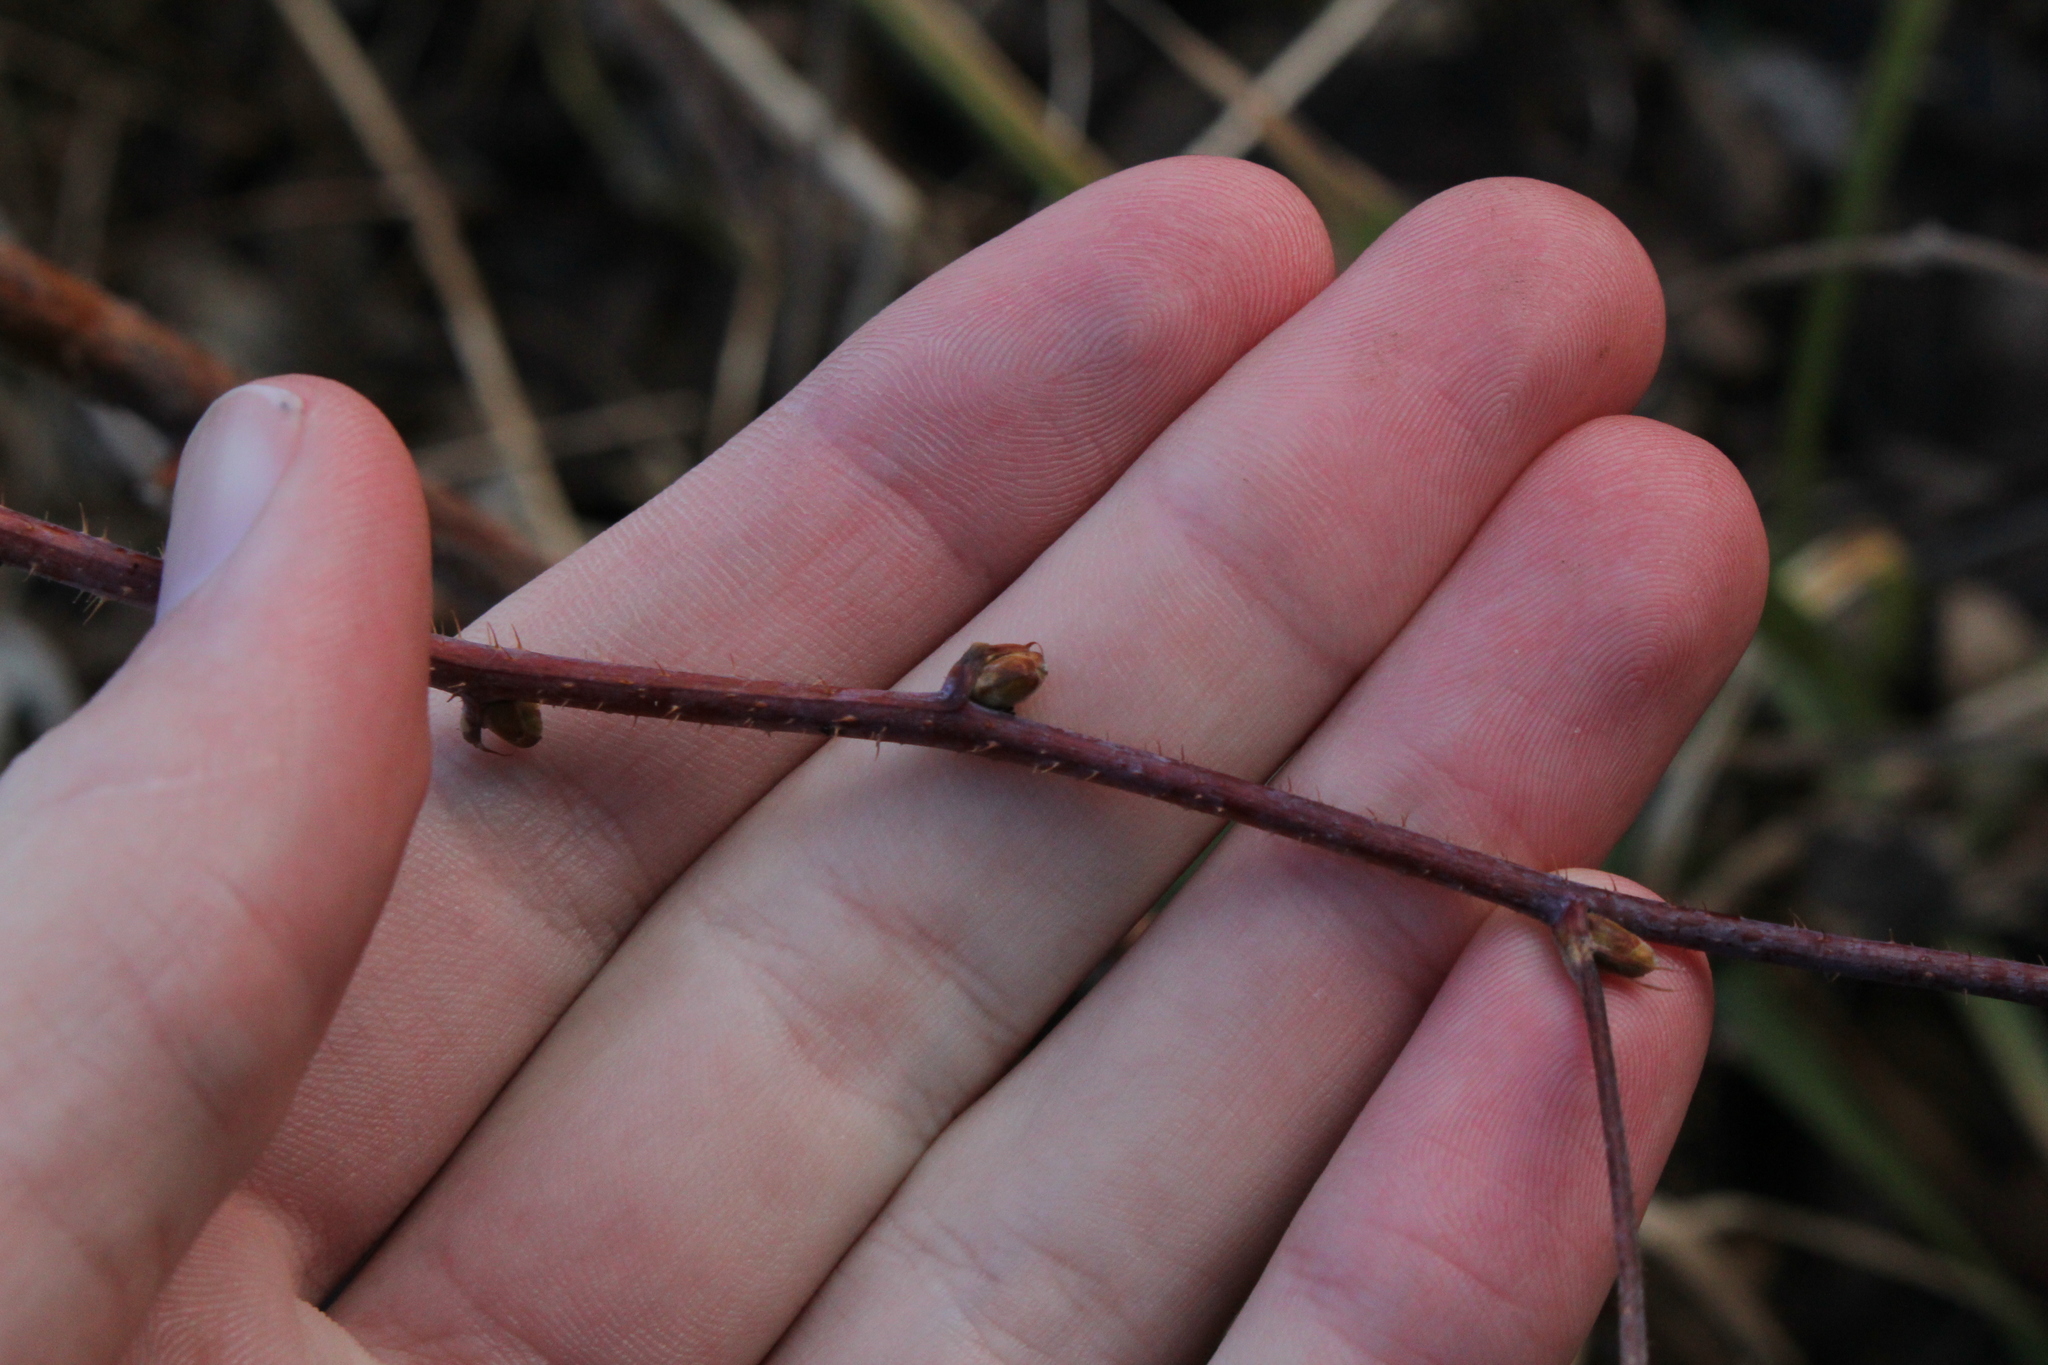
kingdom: Plantae
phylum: Tracheophyta
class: Magnoliopsida
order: Rosales
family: Rosaceae
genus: Rubus
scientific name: Rubus idaeus
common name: Raspberry
